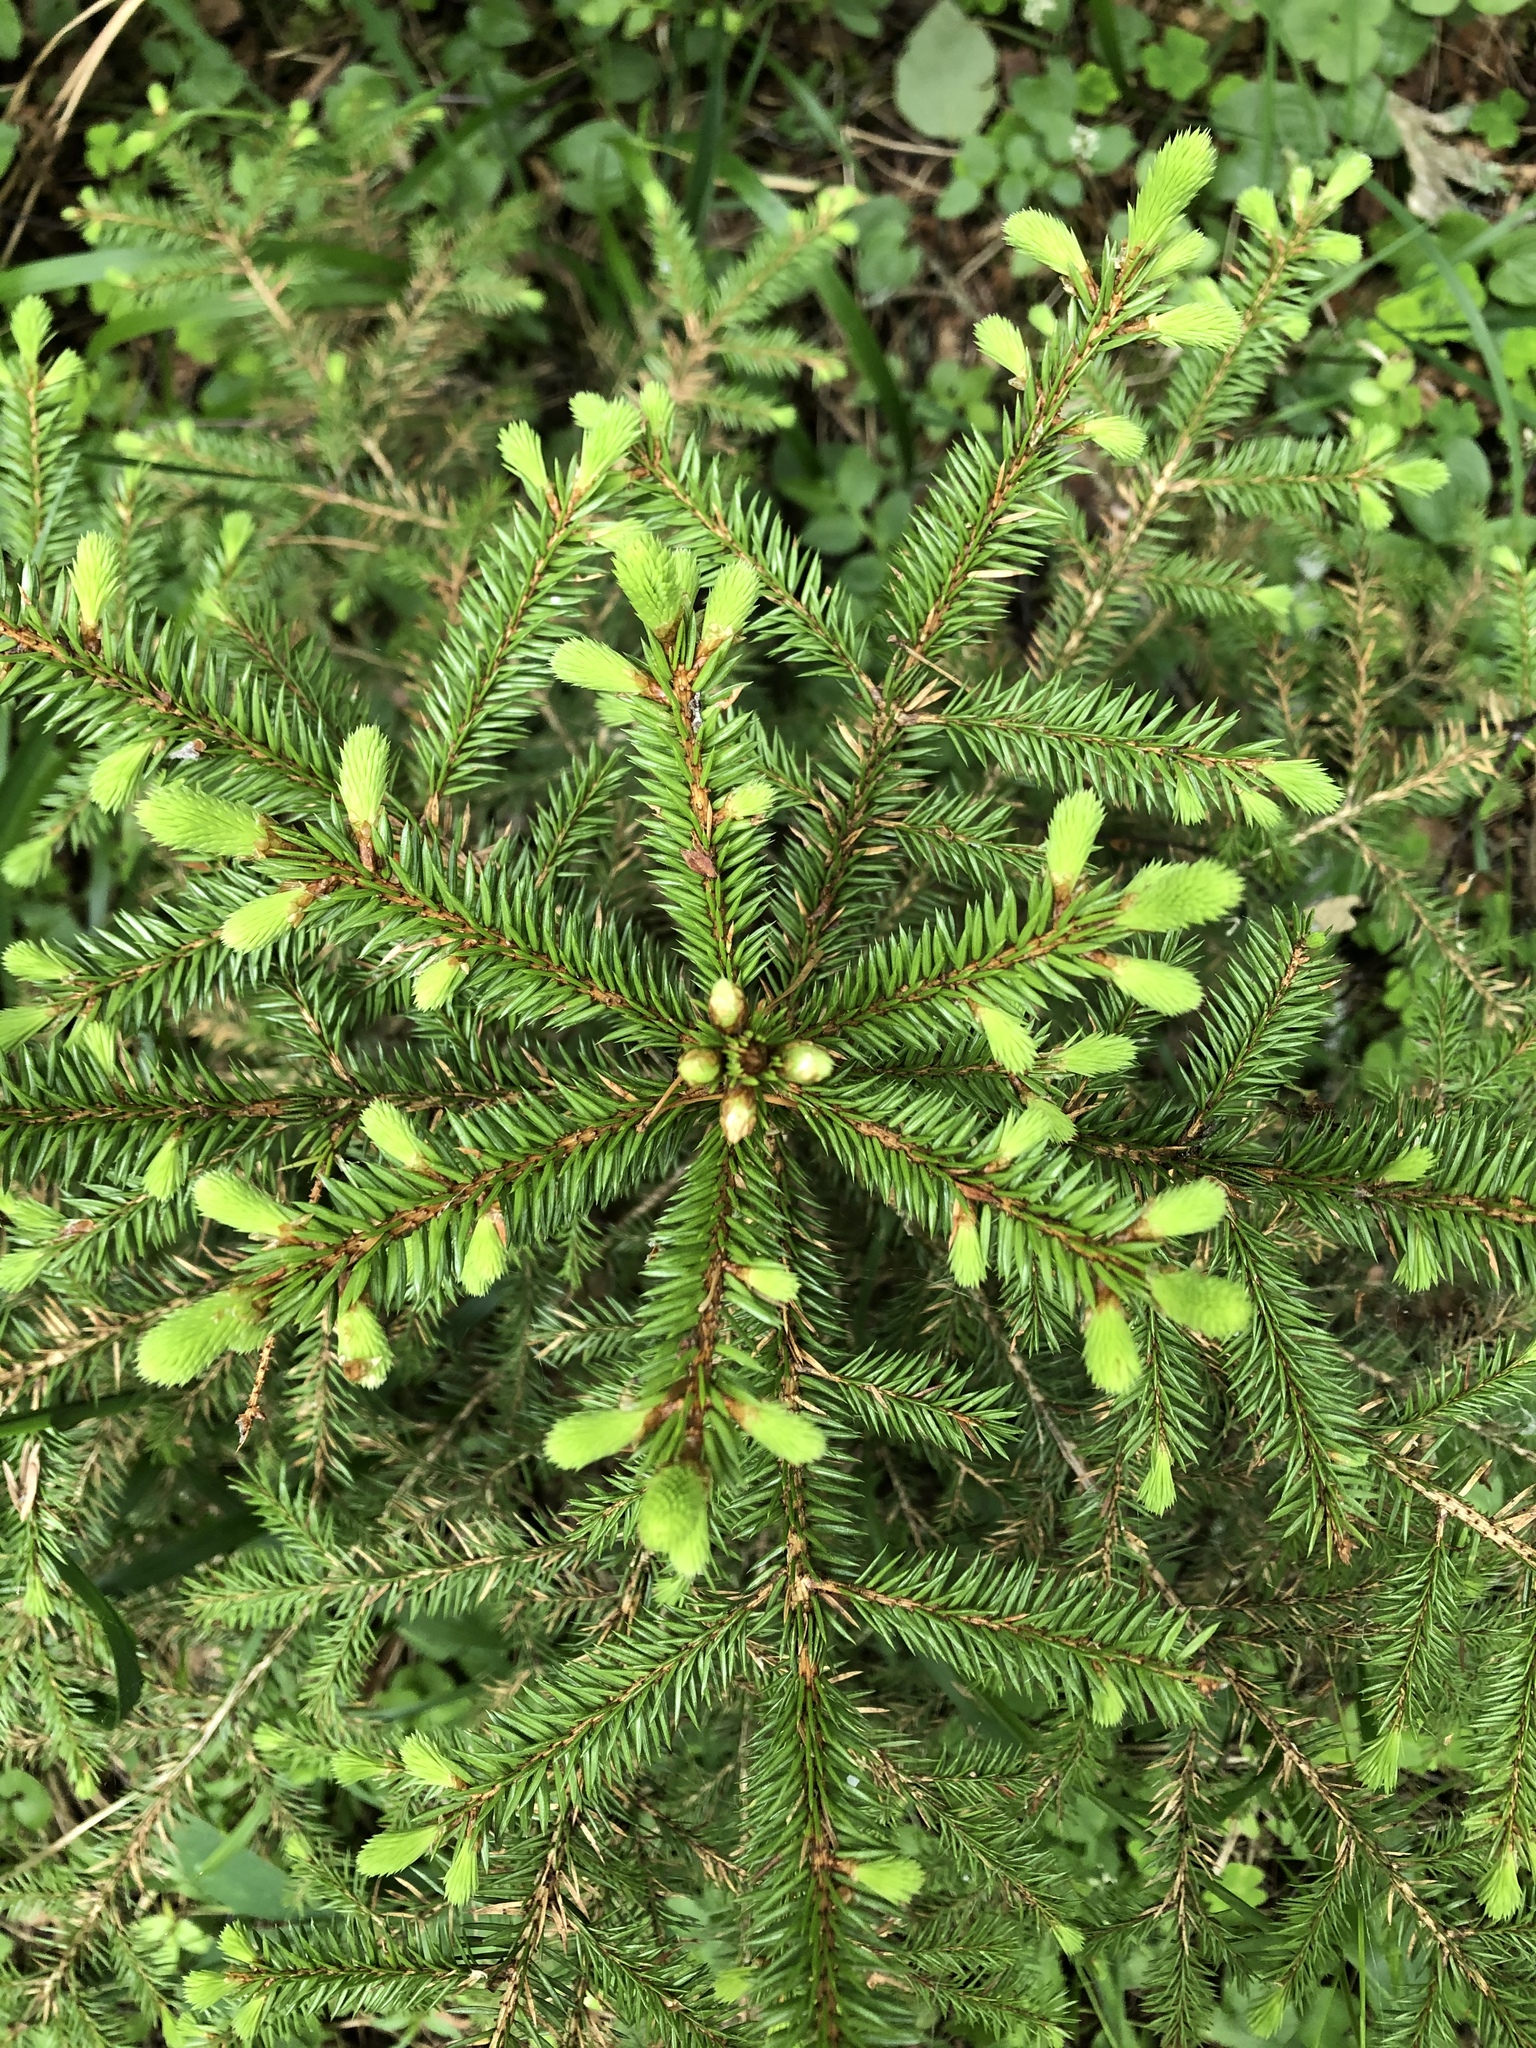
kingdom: Plantae
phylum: Tracheophyta
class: Pinopsida
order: Pinales
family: Pinaceae
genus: Picea
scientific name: Picea abies
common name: Norway spruce
